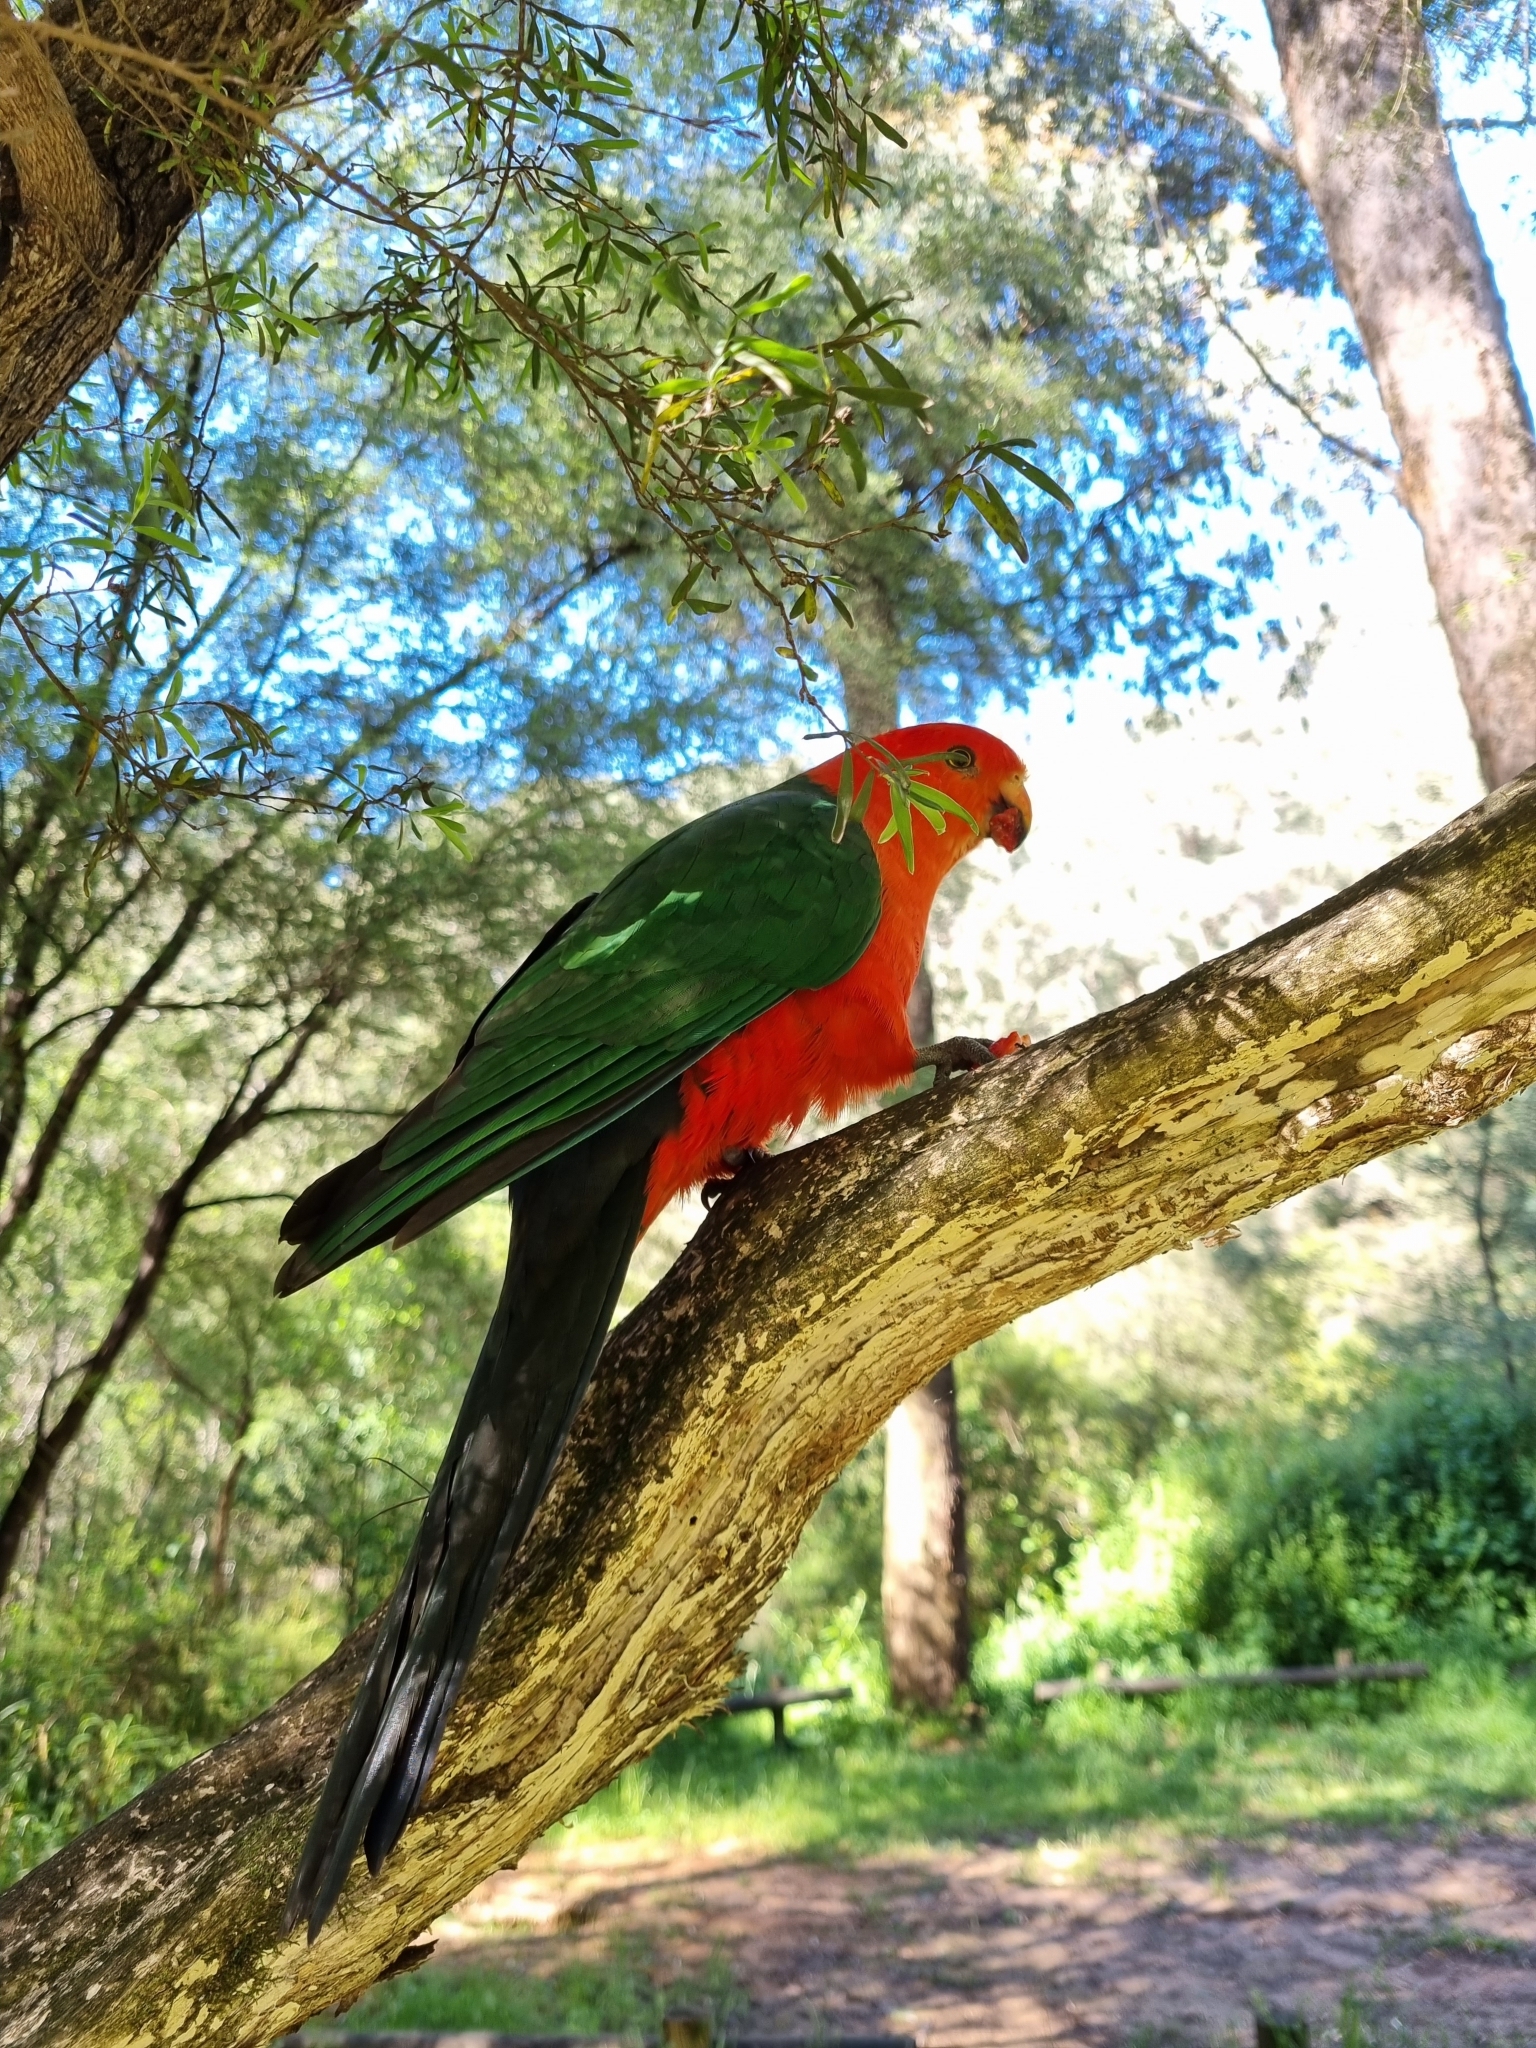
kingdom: Animalia
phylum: Chordata
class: Aves
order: Psittaciformes
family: Psittacidae
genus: Alisterus
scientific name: Alisterus scapularis
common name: Australian king parrot
